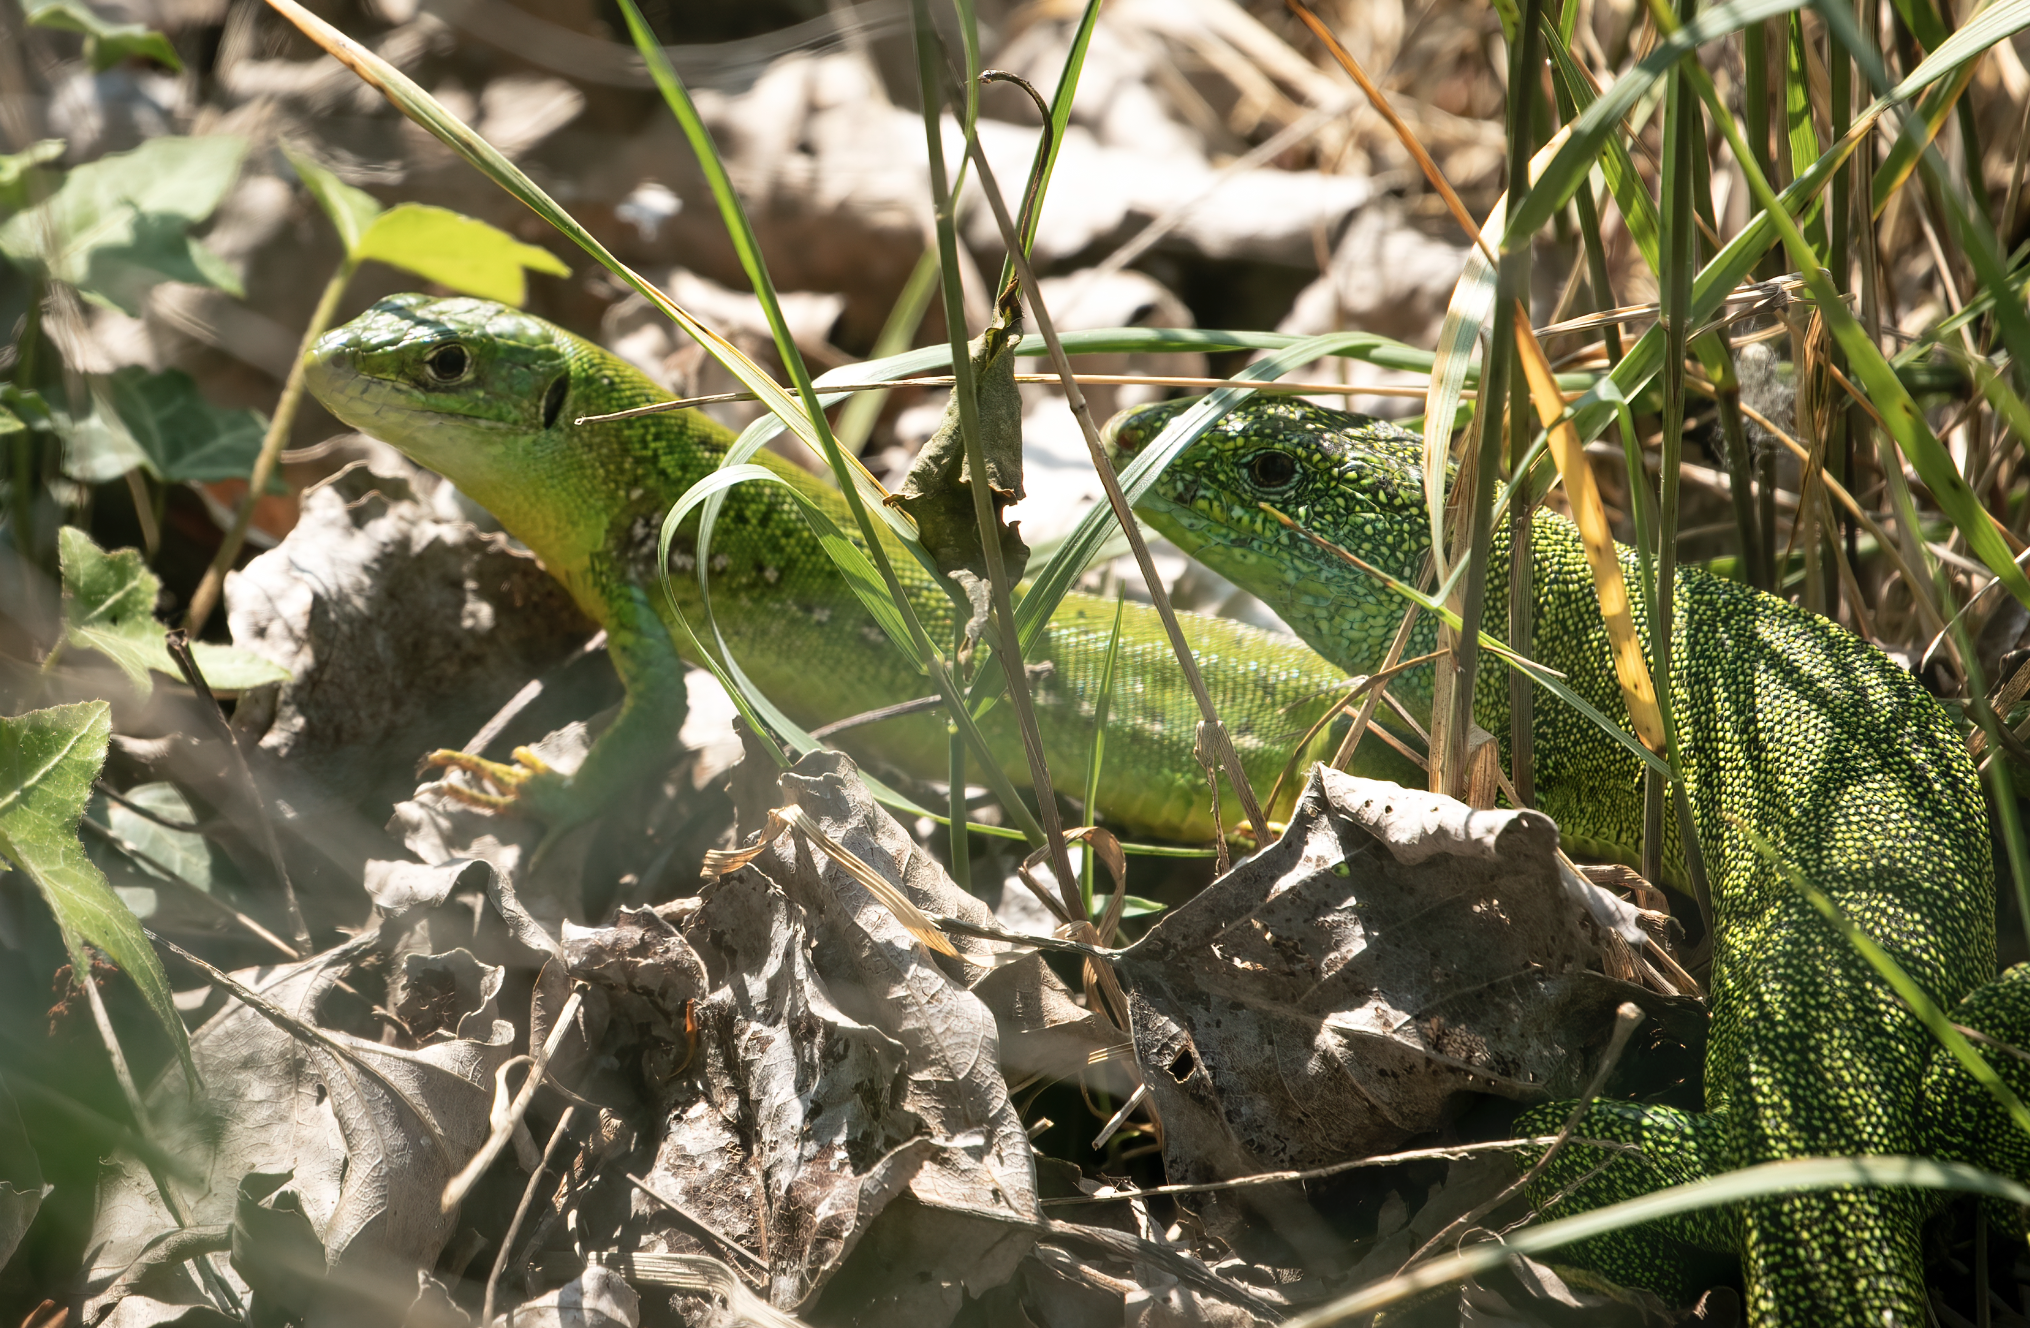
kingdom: Animalia
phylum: Chordata
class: Squamata
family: Lacertidae
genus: Lacerta
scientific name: Lacerta bilineata
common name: Western green lizard
